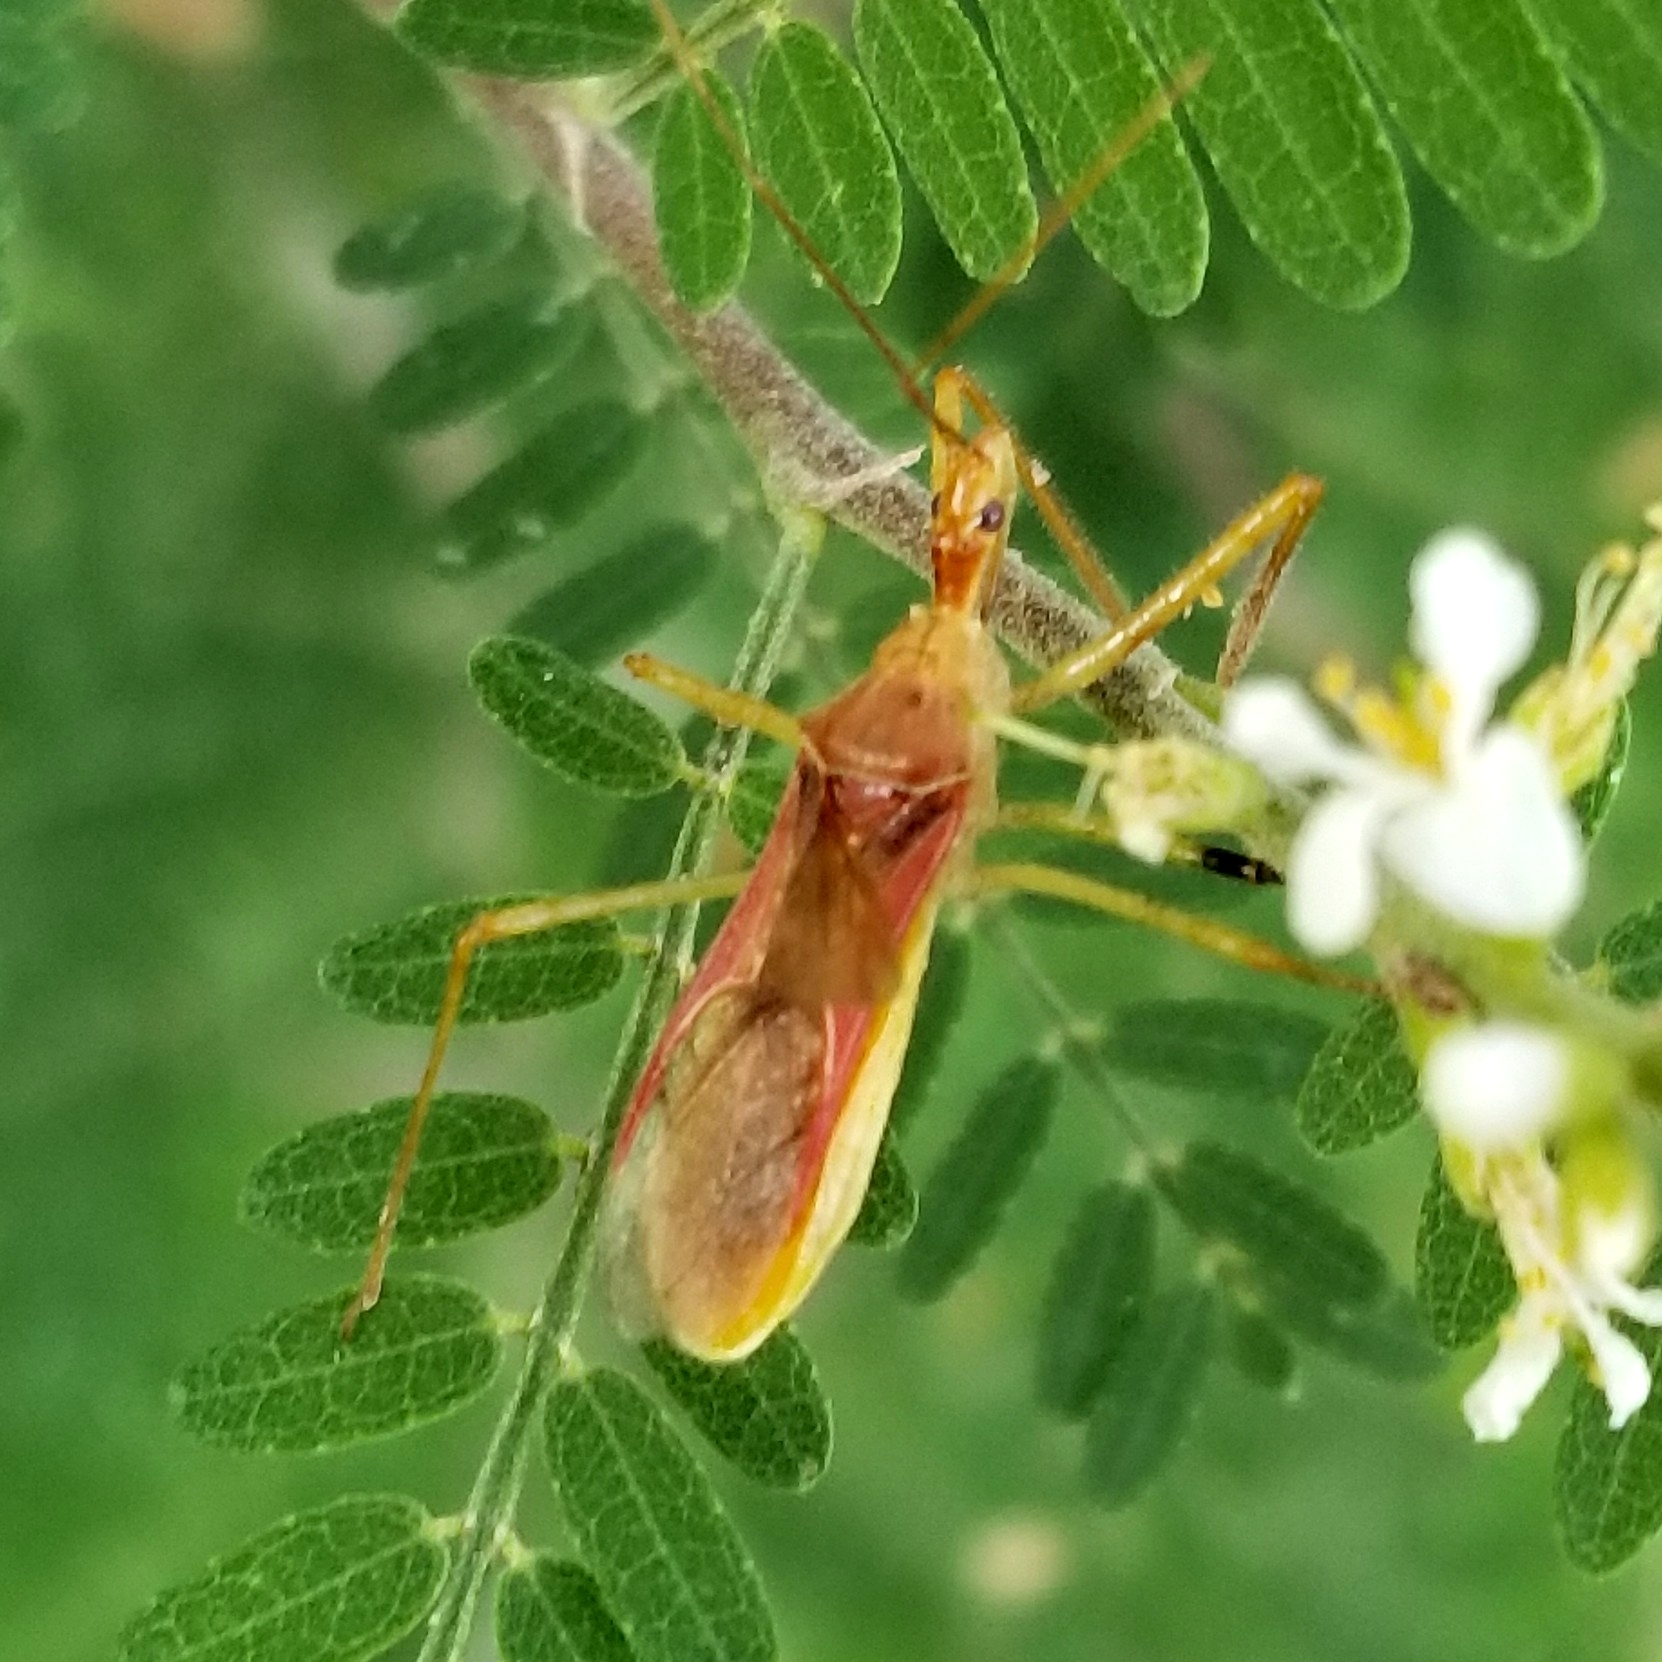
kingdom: Animalia
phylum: Arthropoda
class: Insecta
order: Hemiptera
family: Reduviidae
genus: Zelus
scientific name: Zelus renardii
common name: Assassin bug
